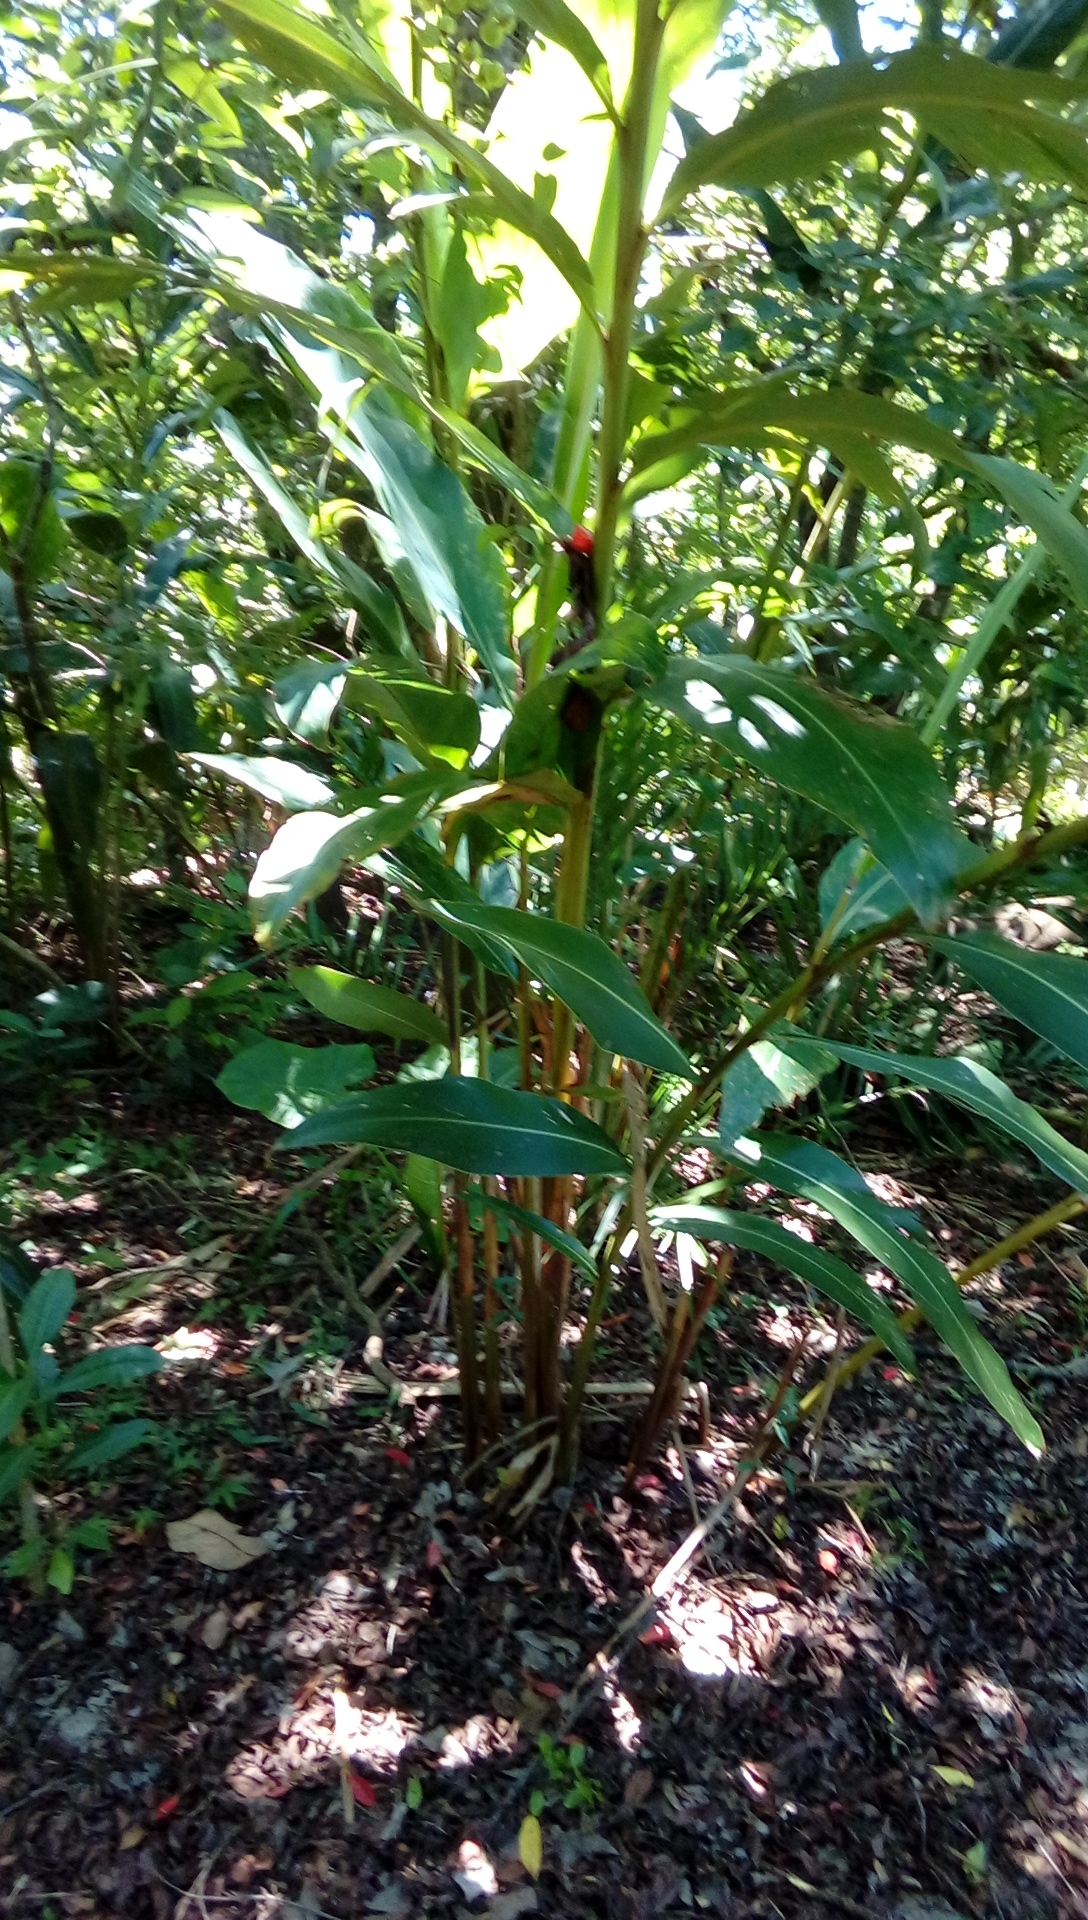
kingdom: Plantae
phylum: Tracheophyta
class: Liliopsida
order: Zingiberales
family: Zingiberaceae
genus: Alpinia
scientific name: Alpinia zerumbet
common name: Shellplant
